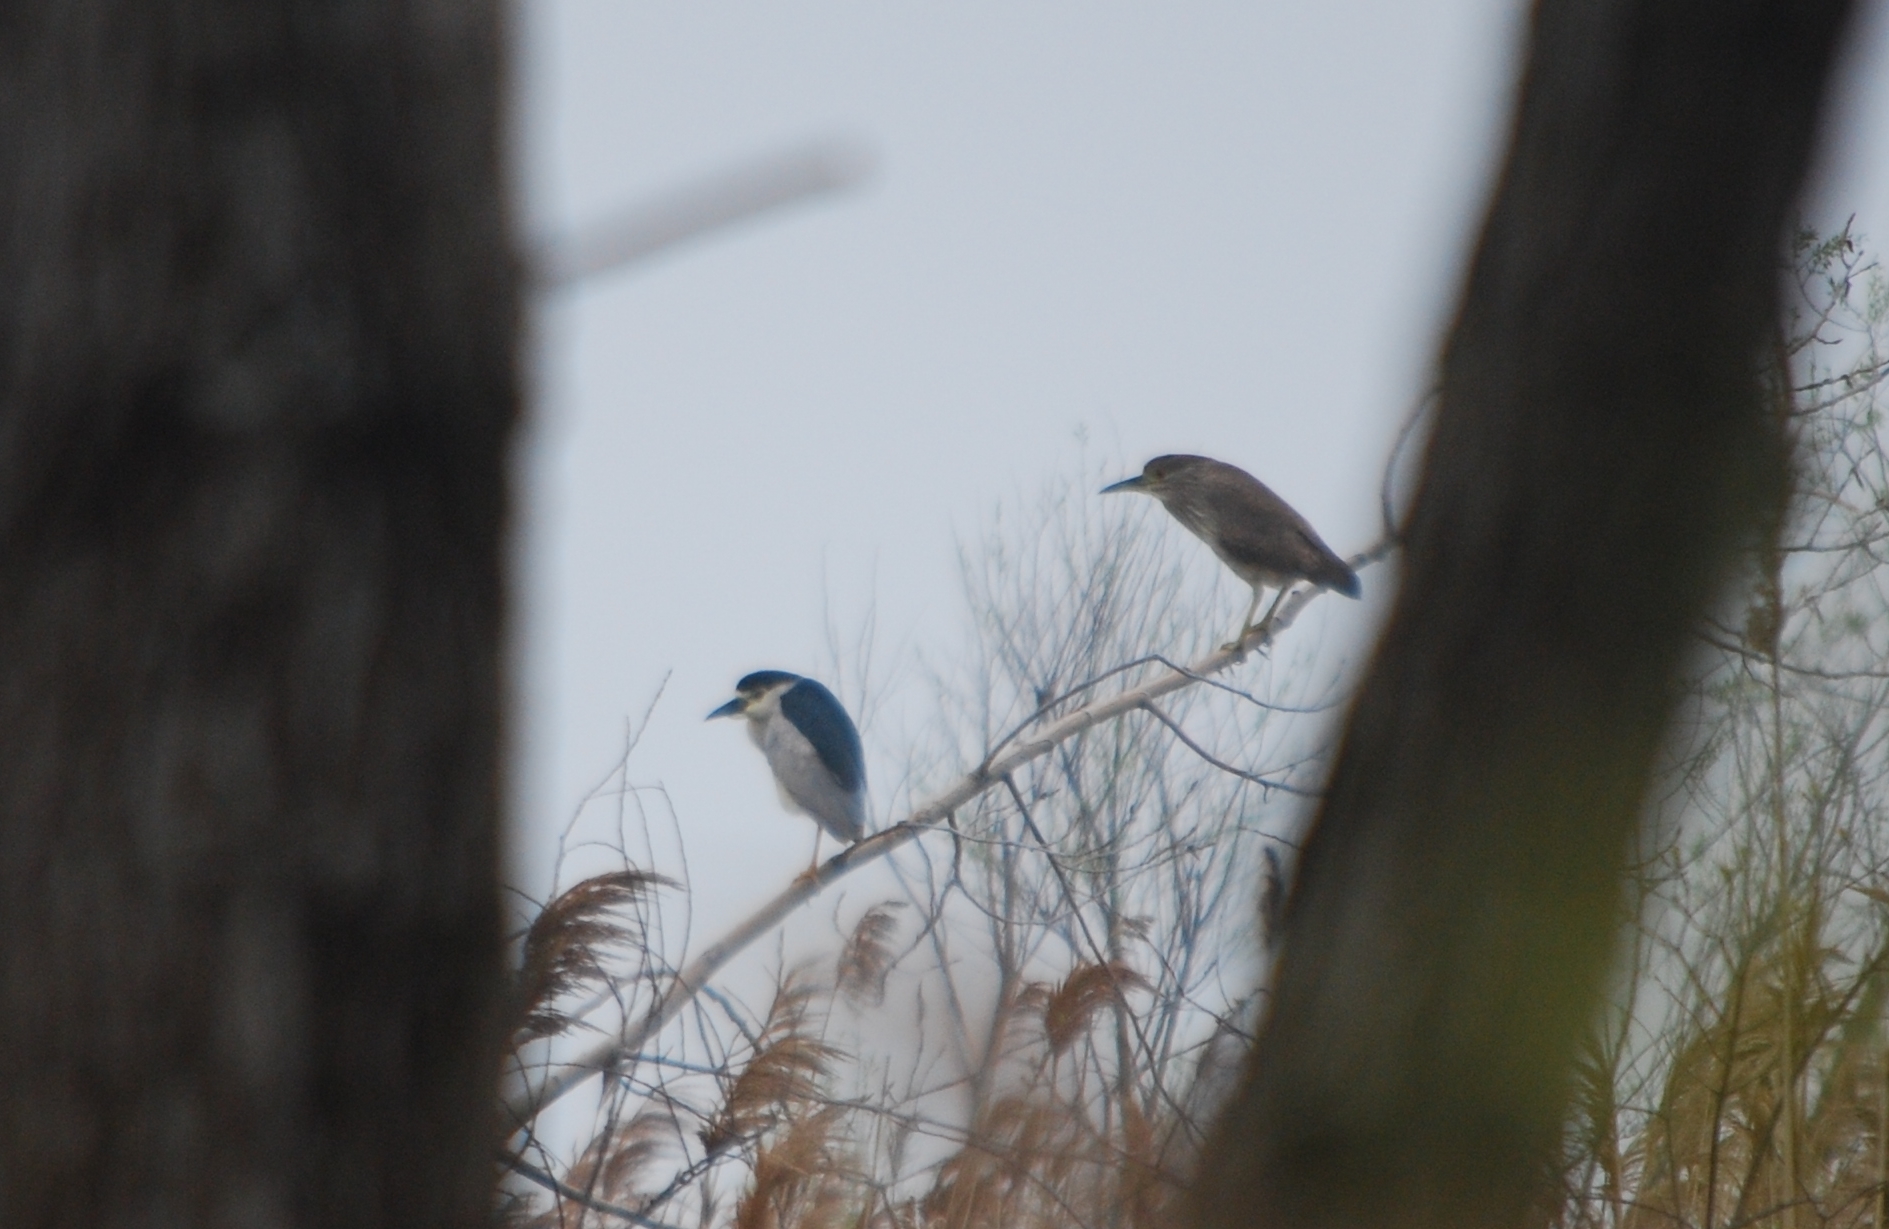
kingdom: Animalia
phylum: Chordata
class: Aves
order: Pelecaniformes
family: Ardeidae
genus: Nycticorax
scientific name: Nycticorax nycticorax
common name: Black-crowned night heron
